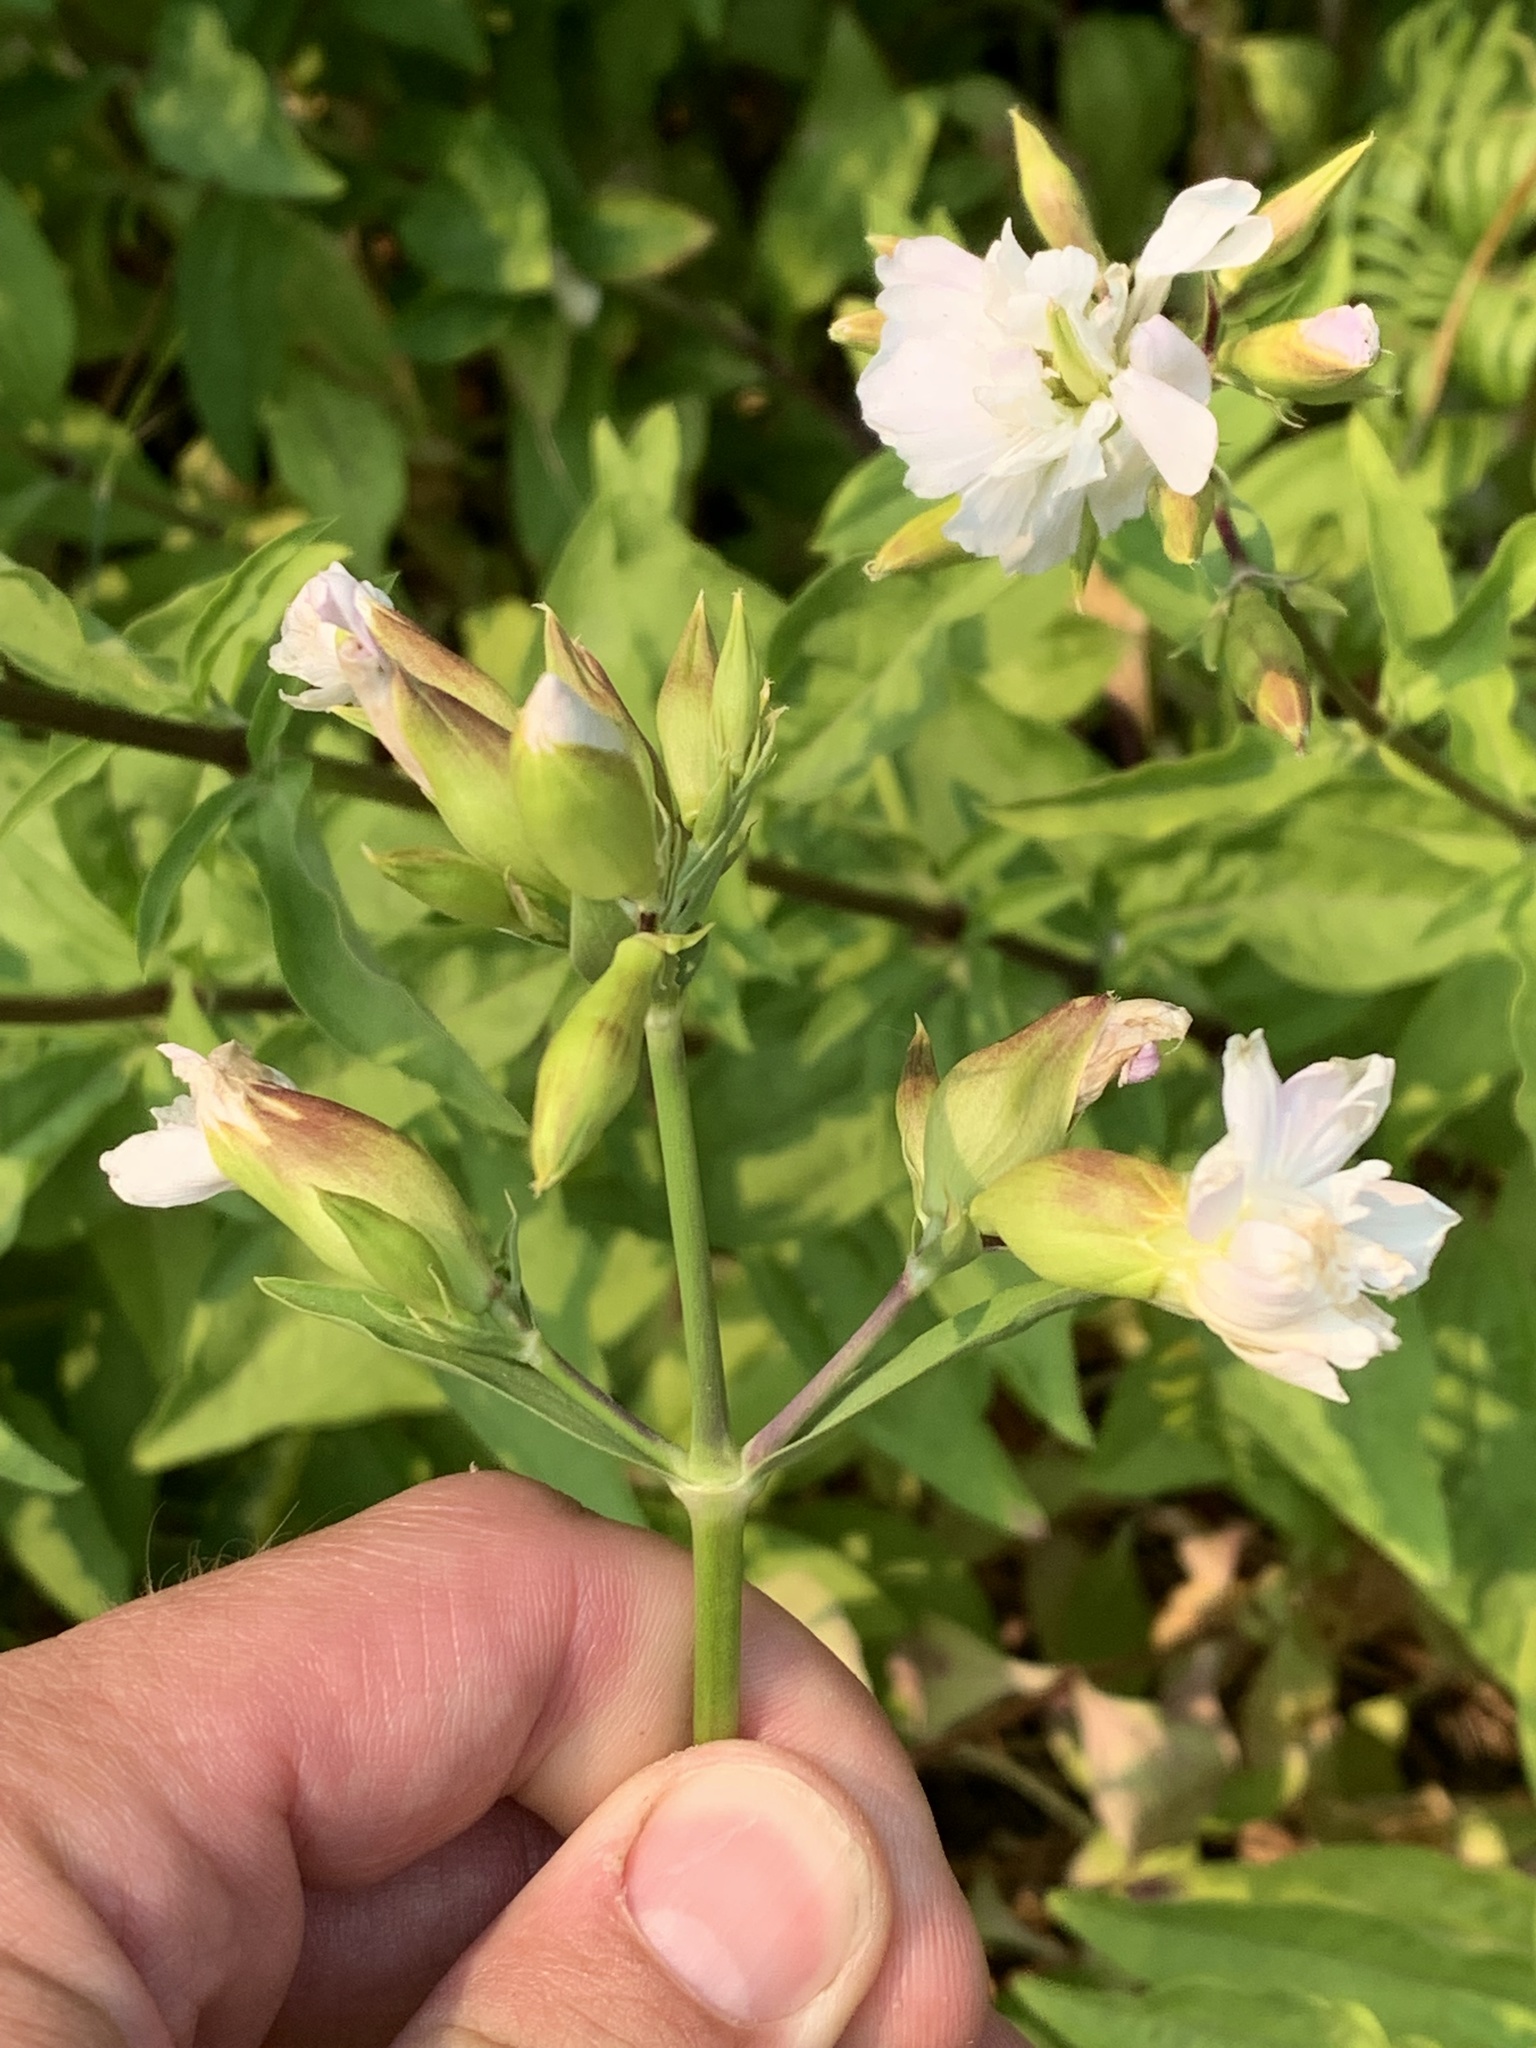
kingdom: Plantae
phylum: Tracheophyta
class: Magnoliopsida
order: Caryophyllales
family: Caryophyllaceae
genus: Saponaria
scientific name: Saponaria officinalis
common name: Soapwort
